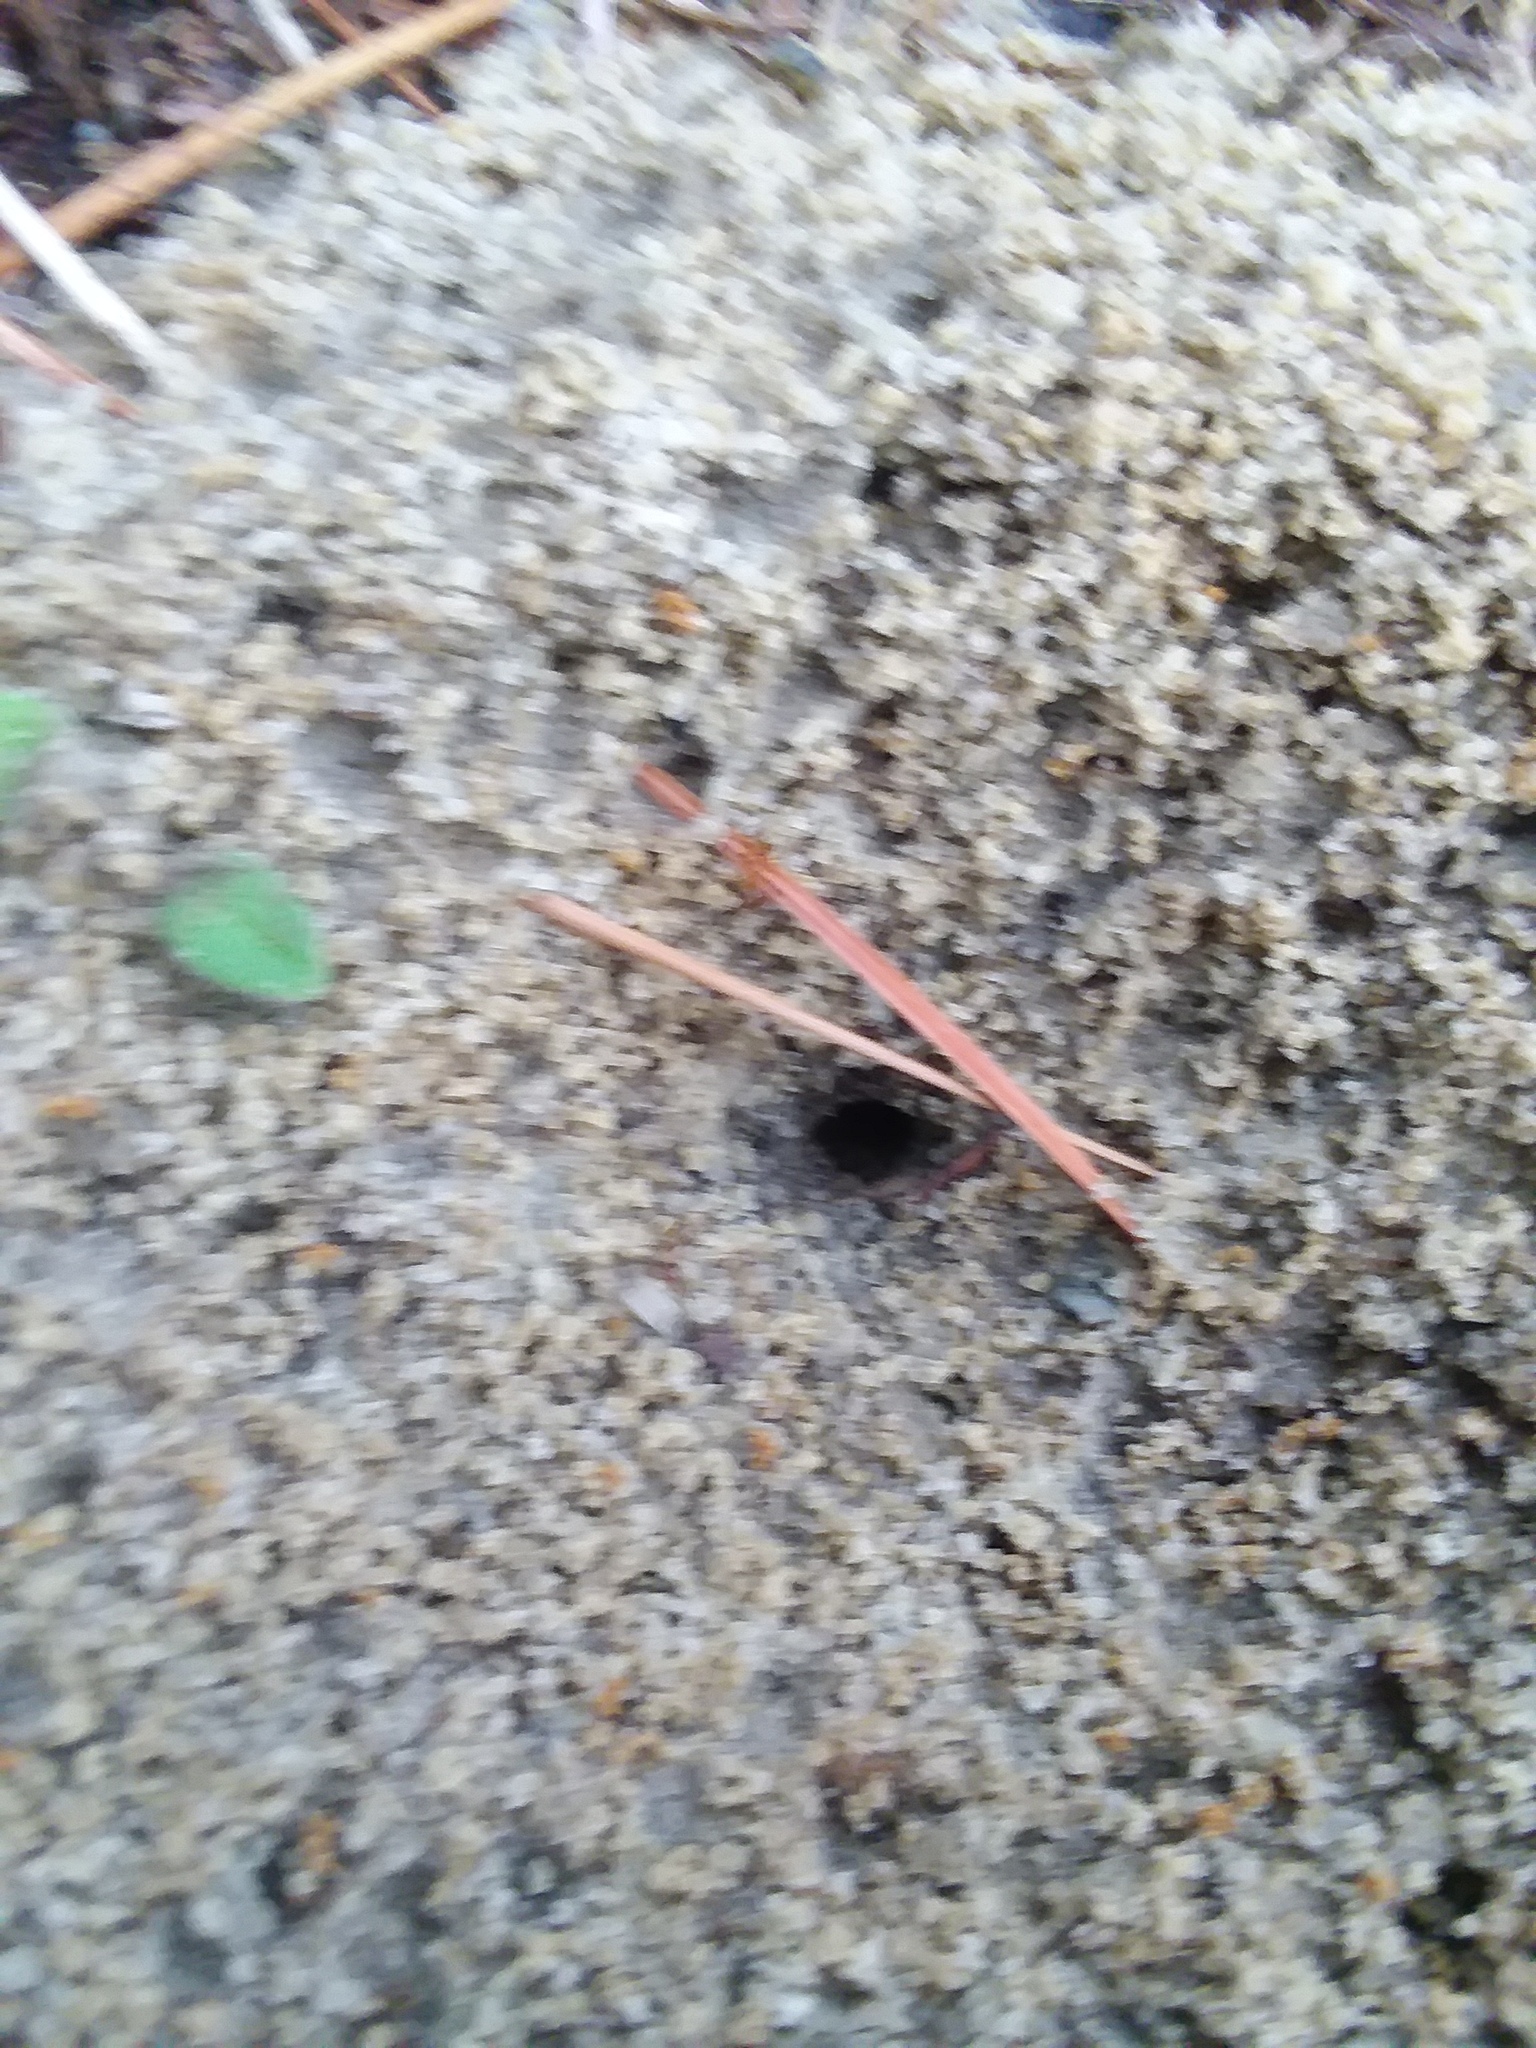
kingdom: Animalia
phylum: Arthropoda
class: Insecta
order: Hymenoptera
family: Formicidae
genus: Dorymyrmex
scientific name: Dorymyrmex bureni
